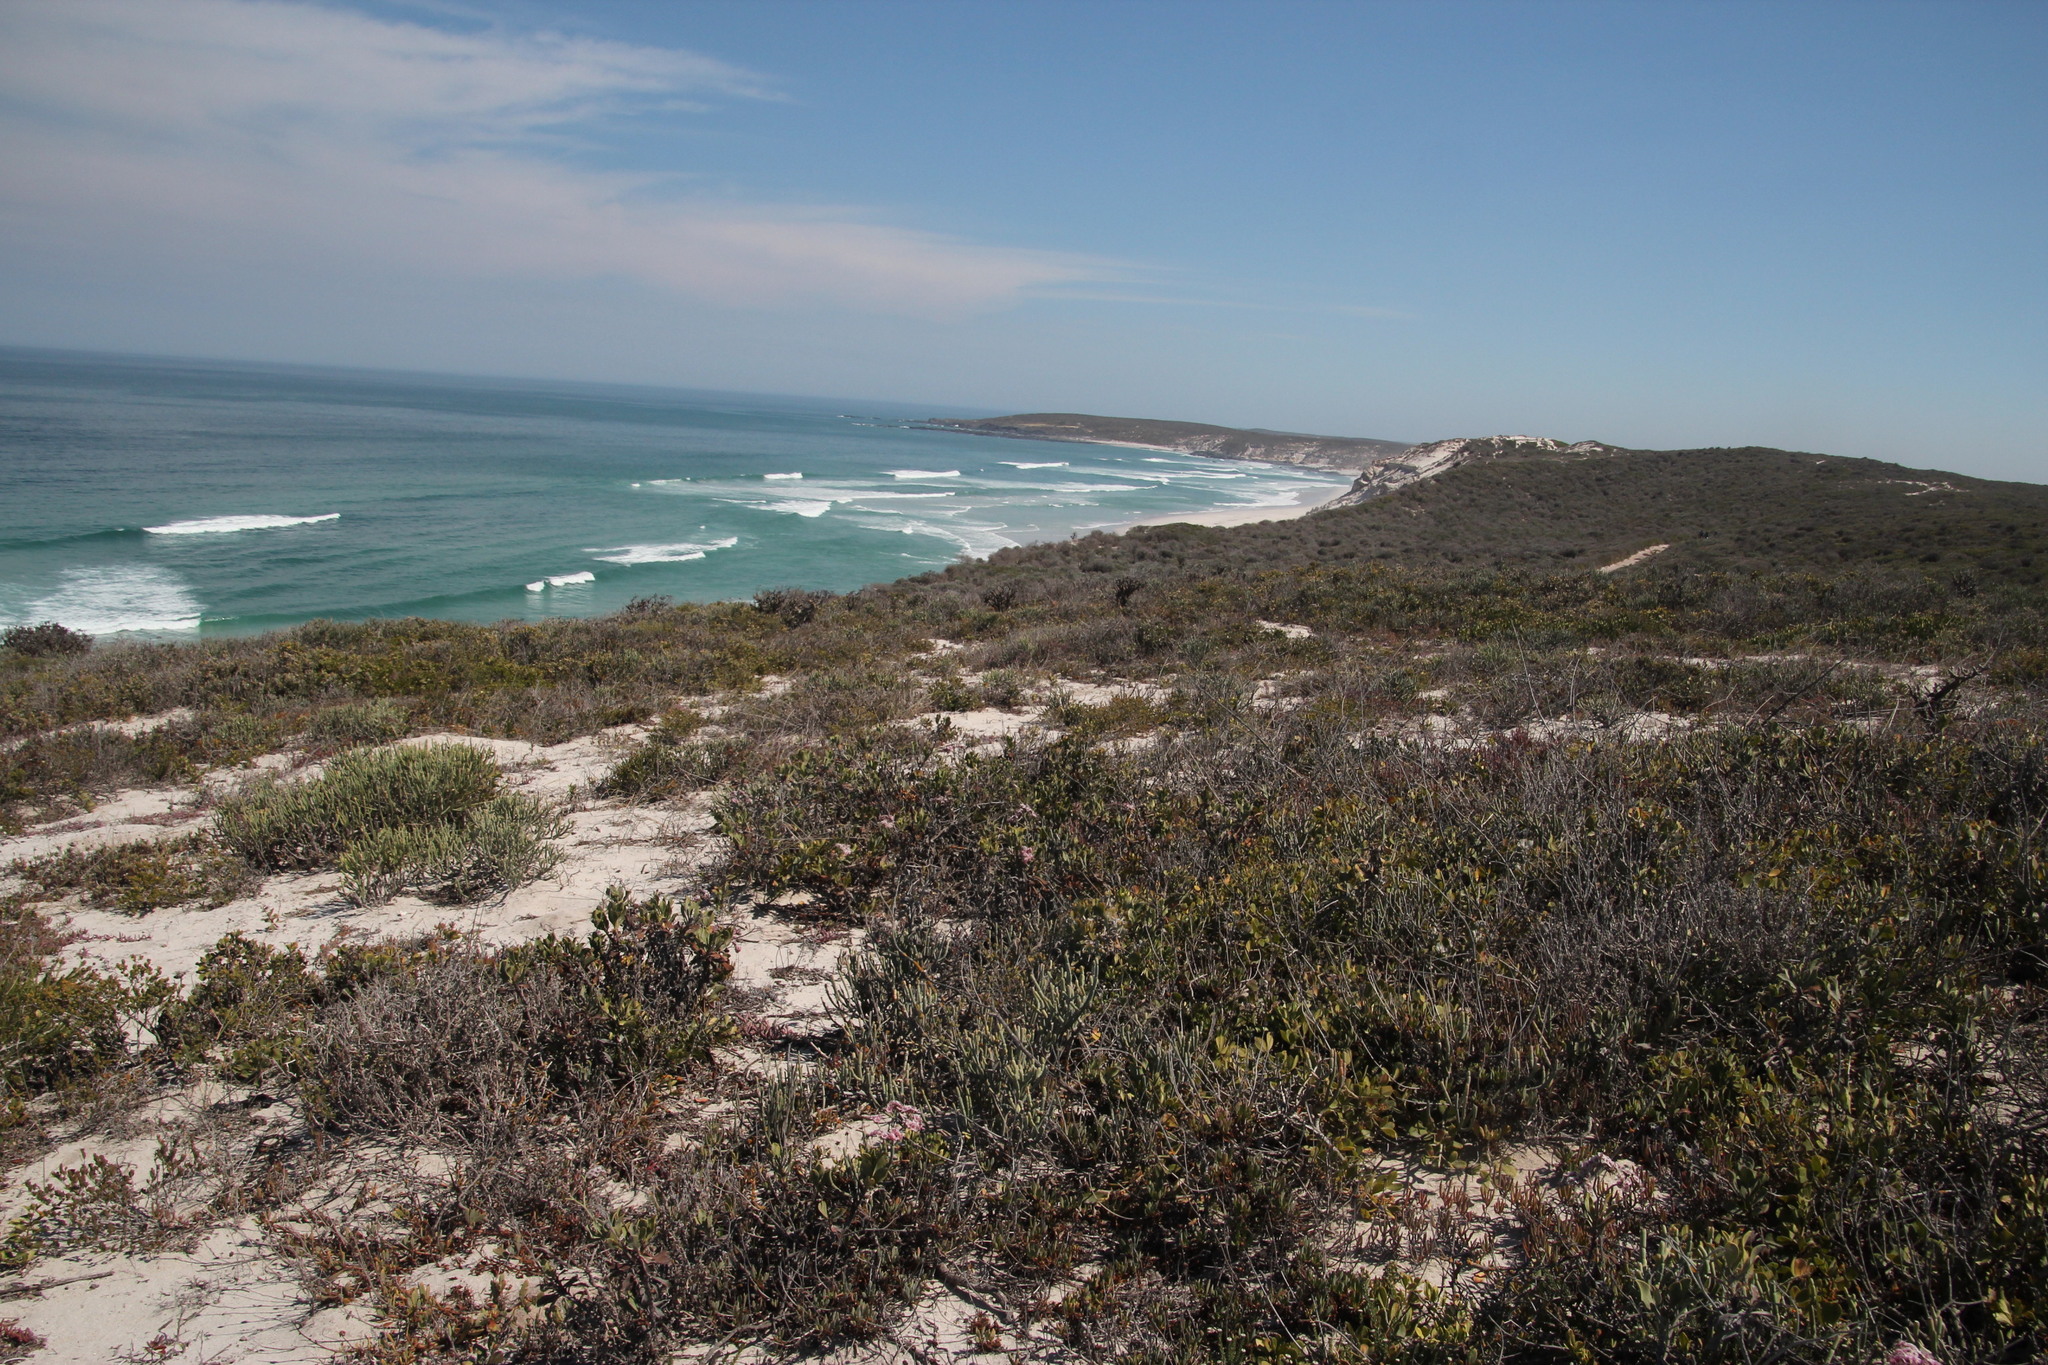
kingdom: Plantae
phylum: Tracheophyta
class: Magnoliopsida
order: Malpighiales
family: Euphorbiaceae
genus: Euphorbia
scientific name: Euphorbia burmanni
